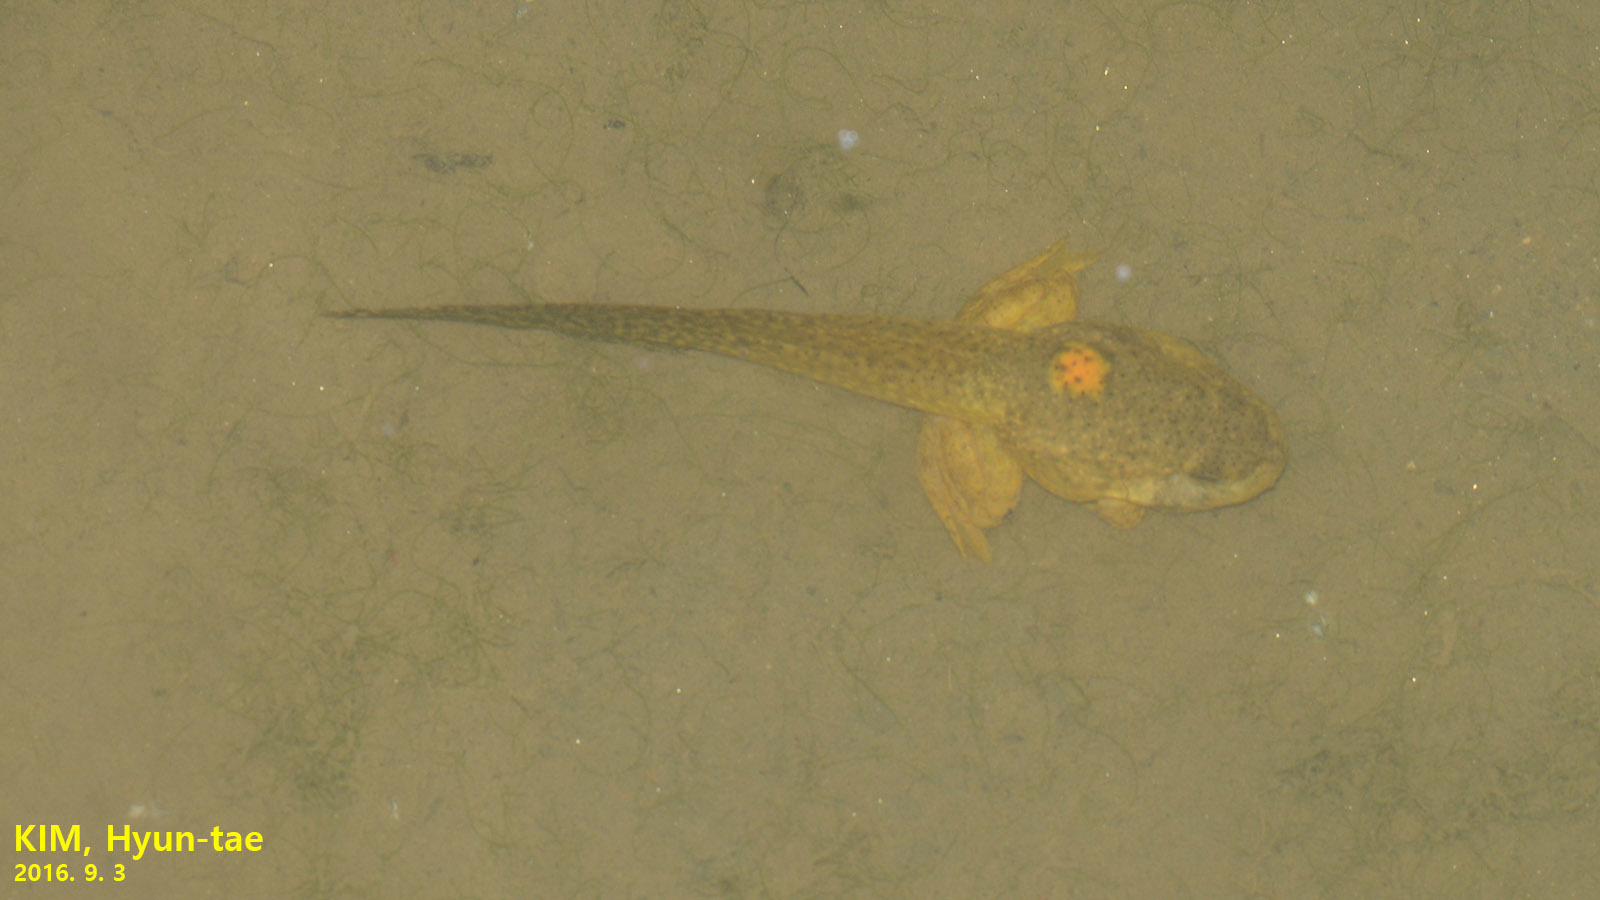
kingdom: Animalia
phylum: Chordata
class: Amphibia
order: Anura
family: Ranidae
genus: Lithobates
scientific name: Lithobates catesbeianus
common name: American bullfrog
